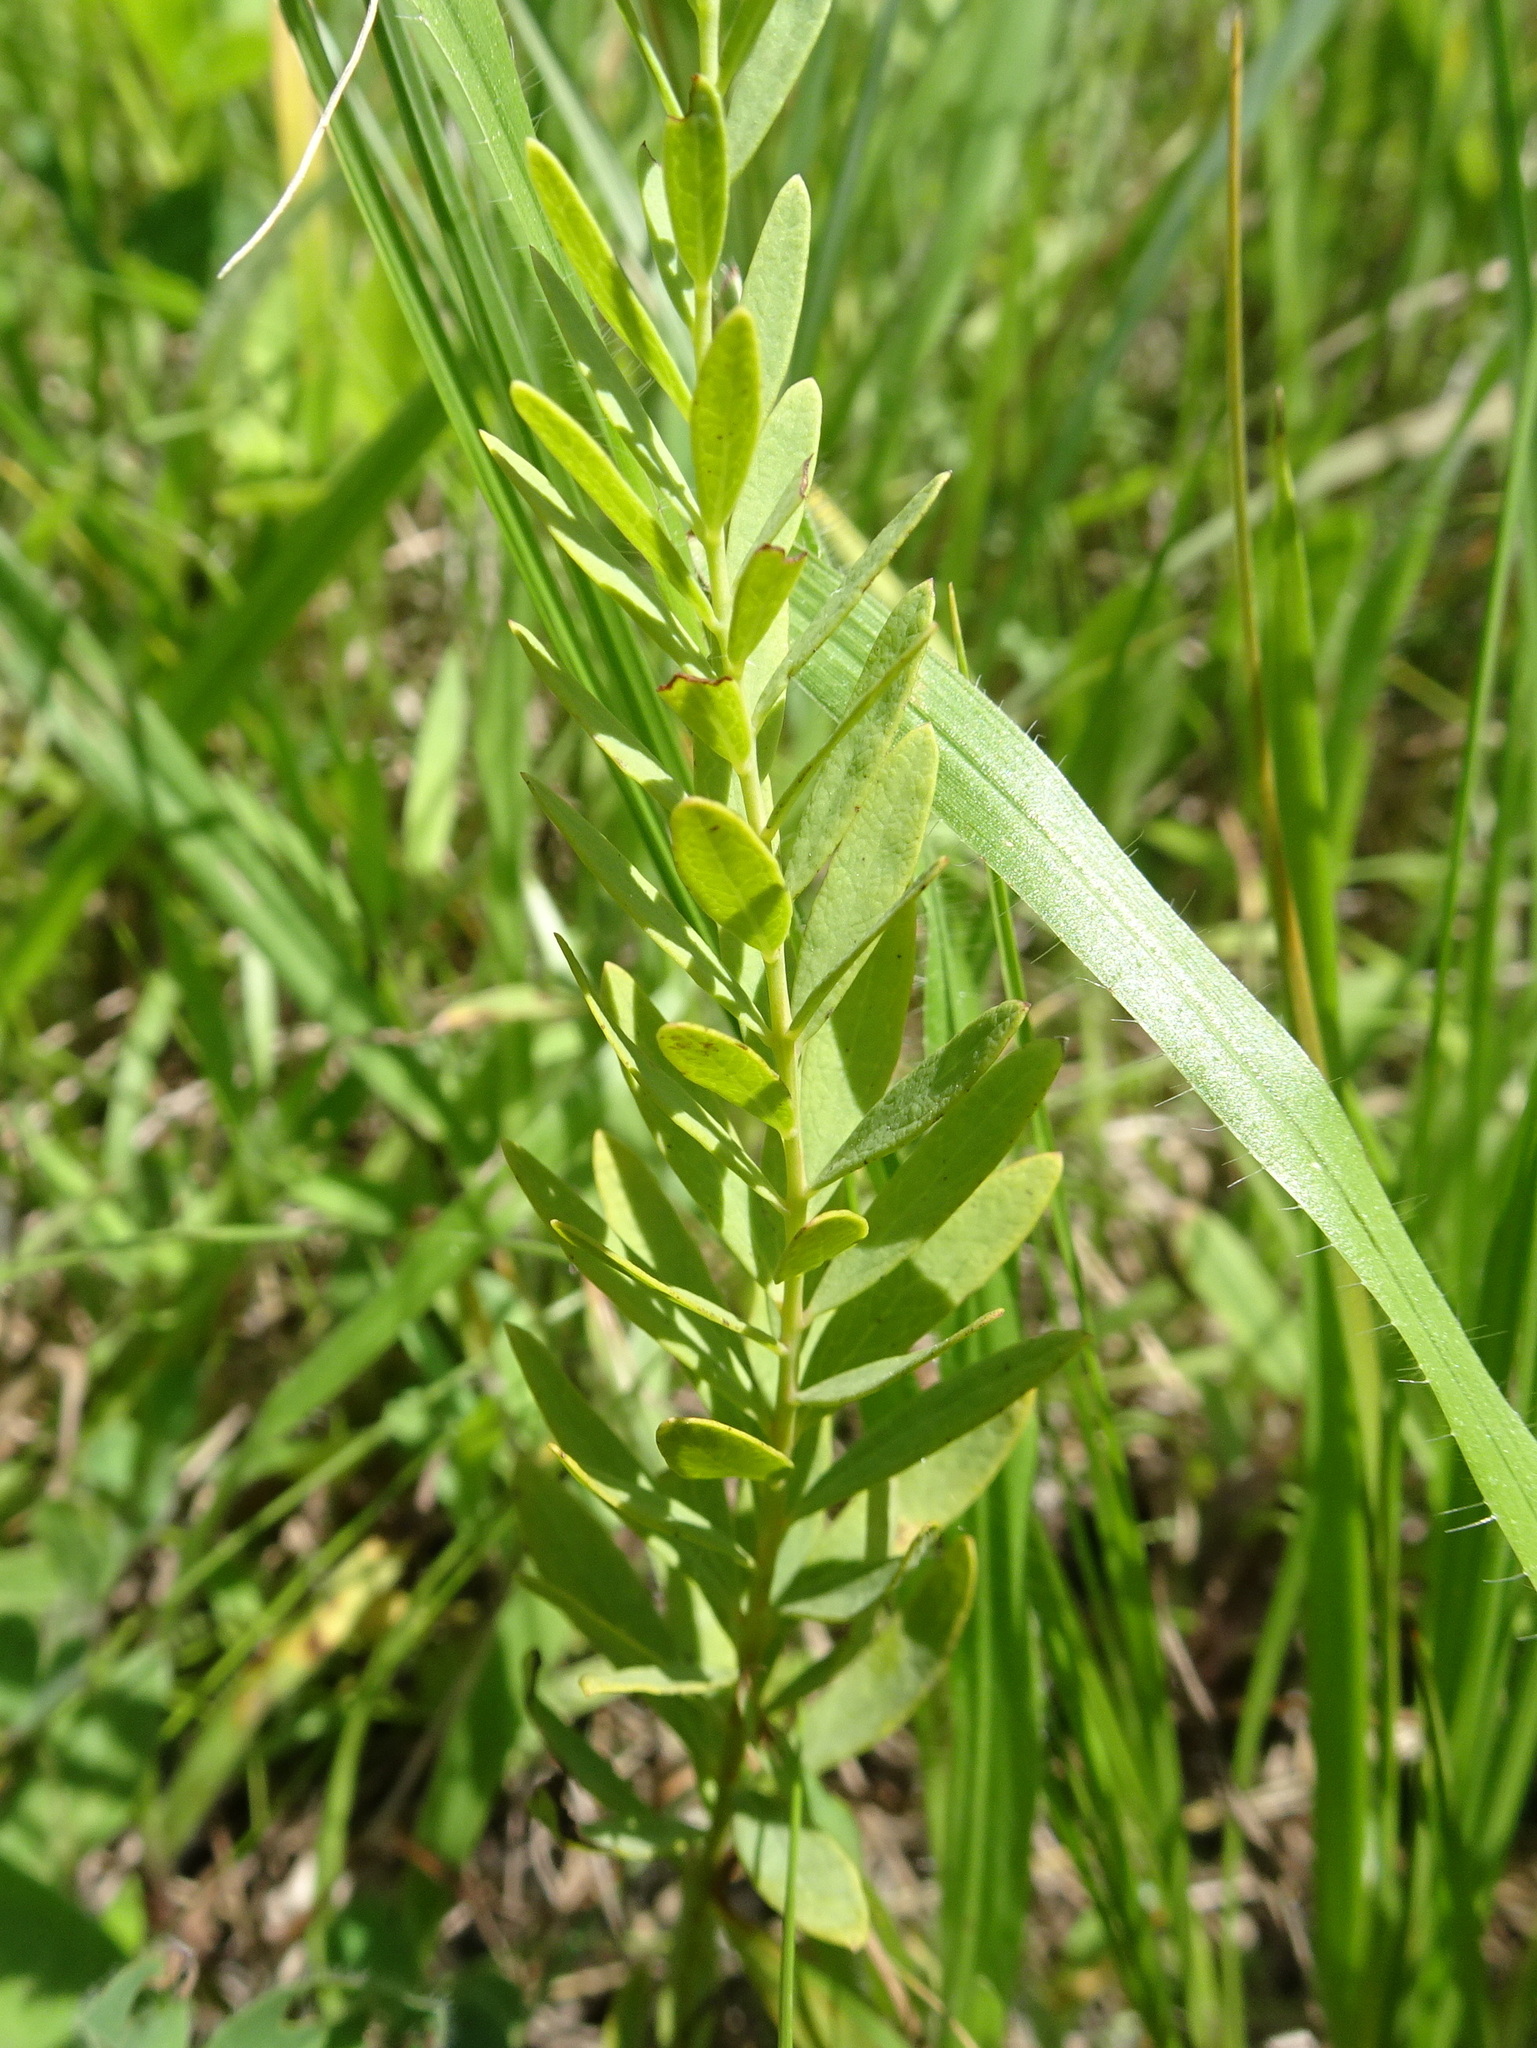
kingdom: Plantae
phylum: Tracheophyta
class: Magnoliopsida
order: Santalales
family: Comandraceae
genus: Comandra
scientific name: Comandra umbellata
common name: Bastard toadflax
